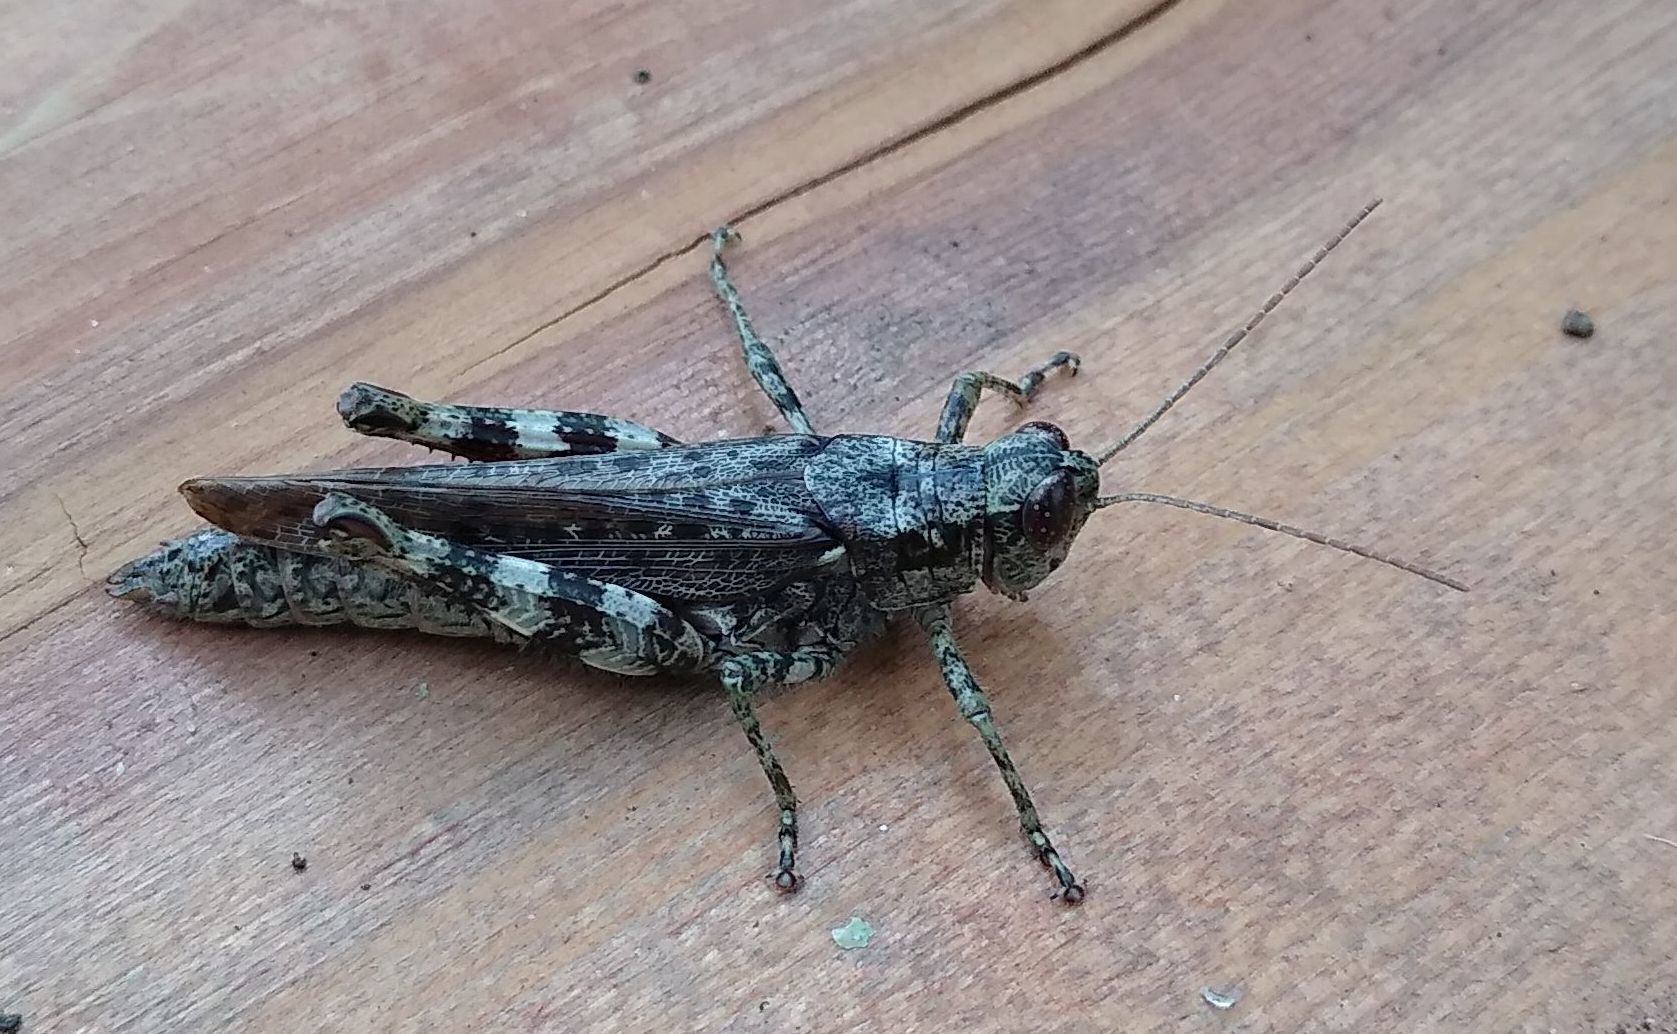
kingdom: Animalia
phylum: Arthropoda
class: Insecta
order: Orthoptera
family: Acrididae
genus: Melanoplus
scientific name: Melanoplus punctulatus
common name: Pine-tree spur-throat grasshopper
